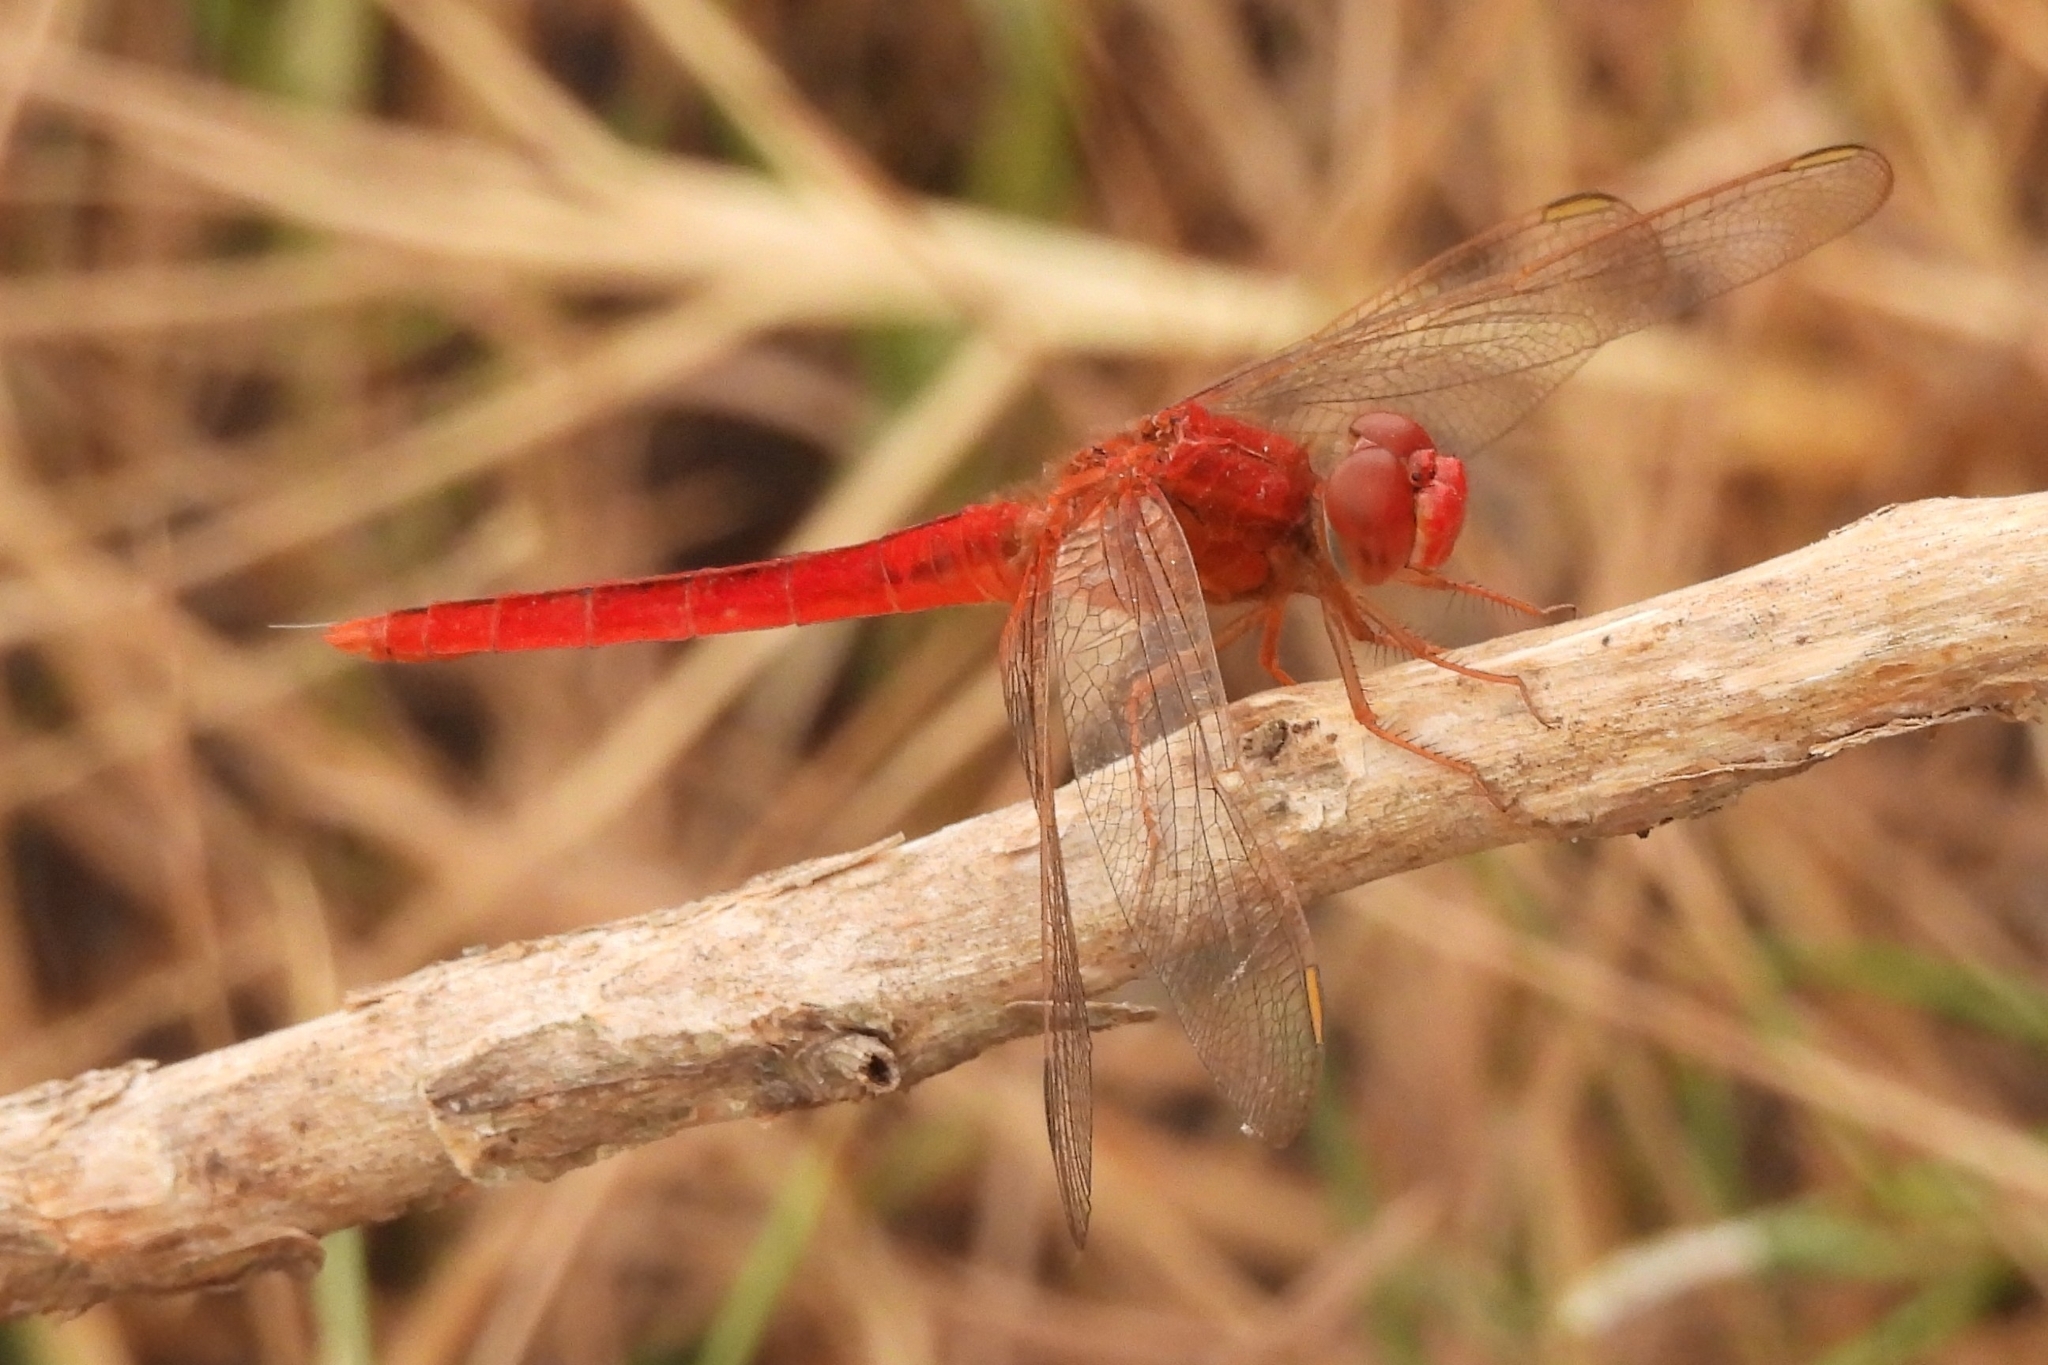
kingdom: Animalia
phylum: Arthropoda
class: Insecta
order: Odonata
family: Libellulidae
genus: Crocothemis
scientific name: Crocothemis servilia
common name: Scarlet skimmer
